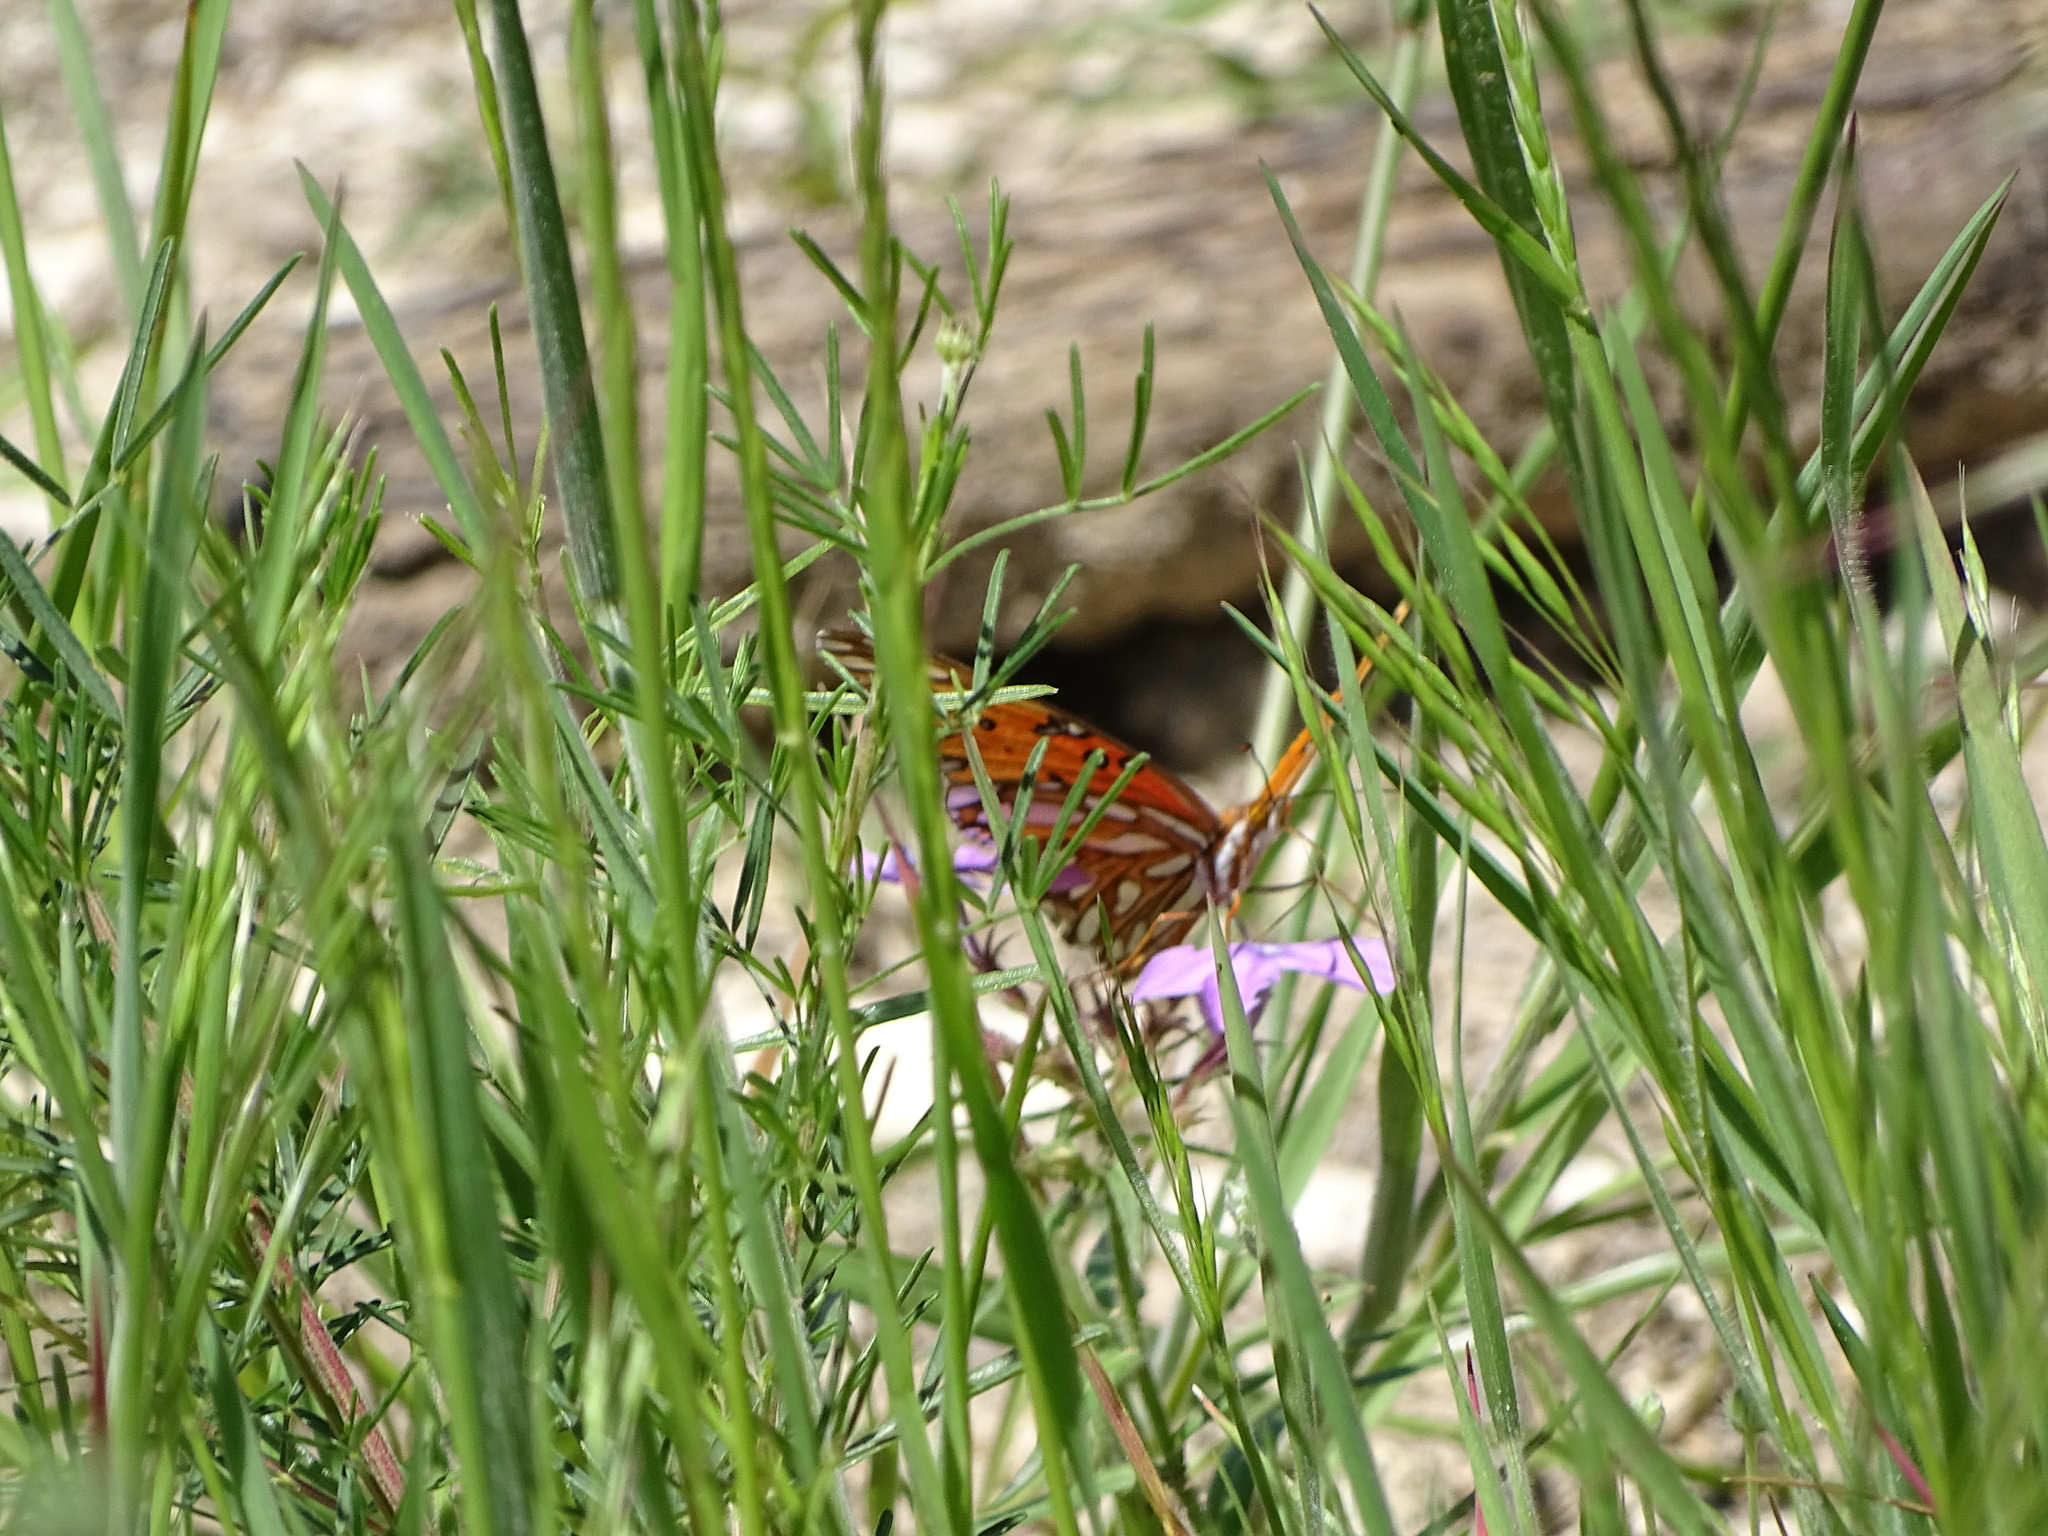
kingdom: Animalia
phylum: Arthropoda
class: Insecta
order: Lepidoptera
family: Nymphalidae
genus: Dione
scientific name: Dione vanillae
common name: Gulf fritillary
